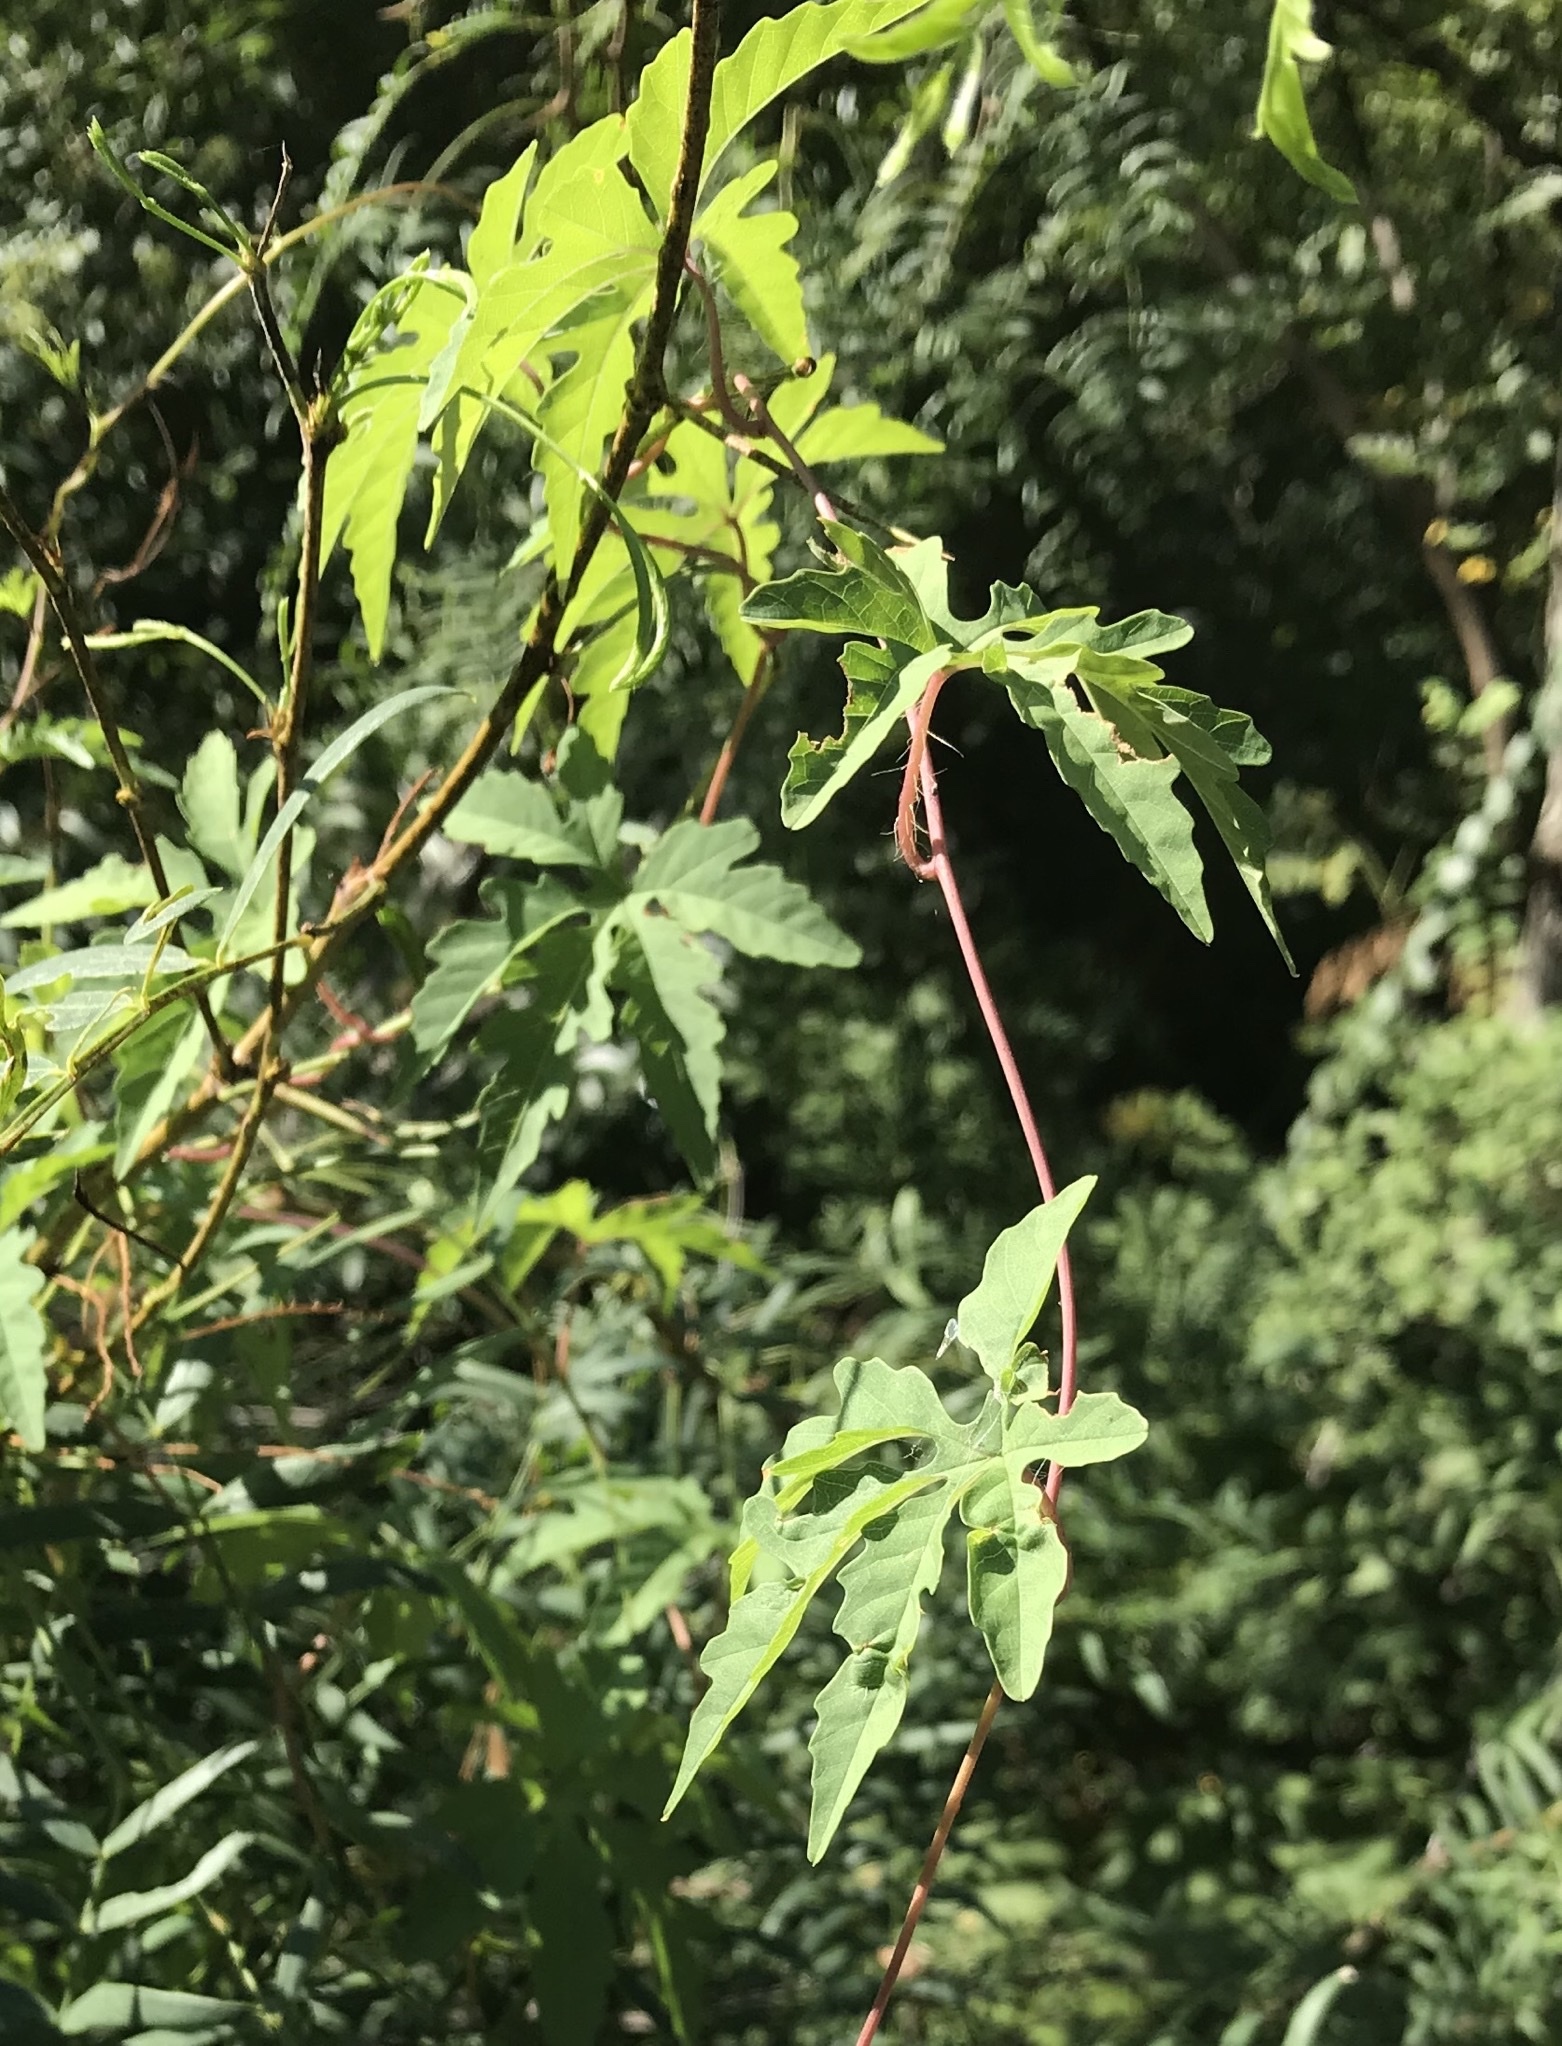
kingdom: Plantae
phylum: Tracheophyta
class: Magnoliopsida
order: Solanales
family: Convolvulaceae
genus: Distimake
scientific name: Distimake dissectus
